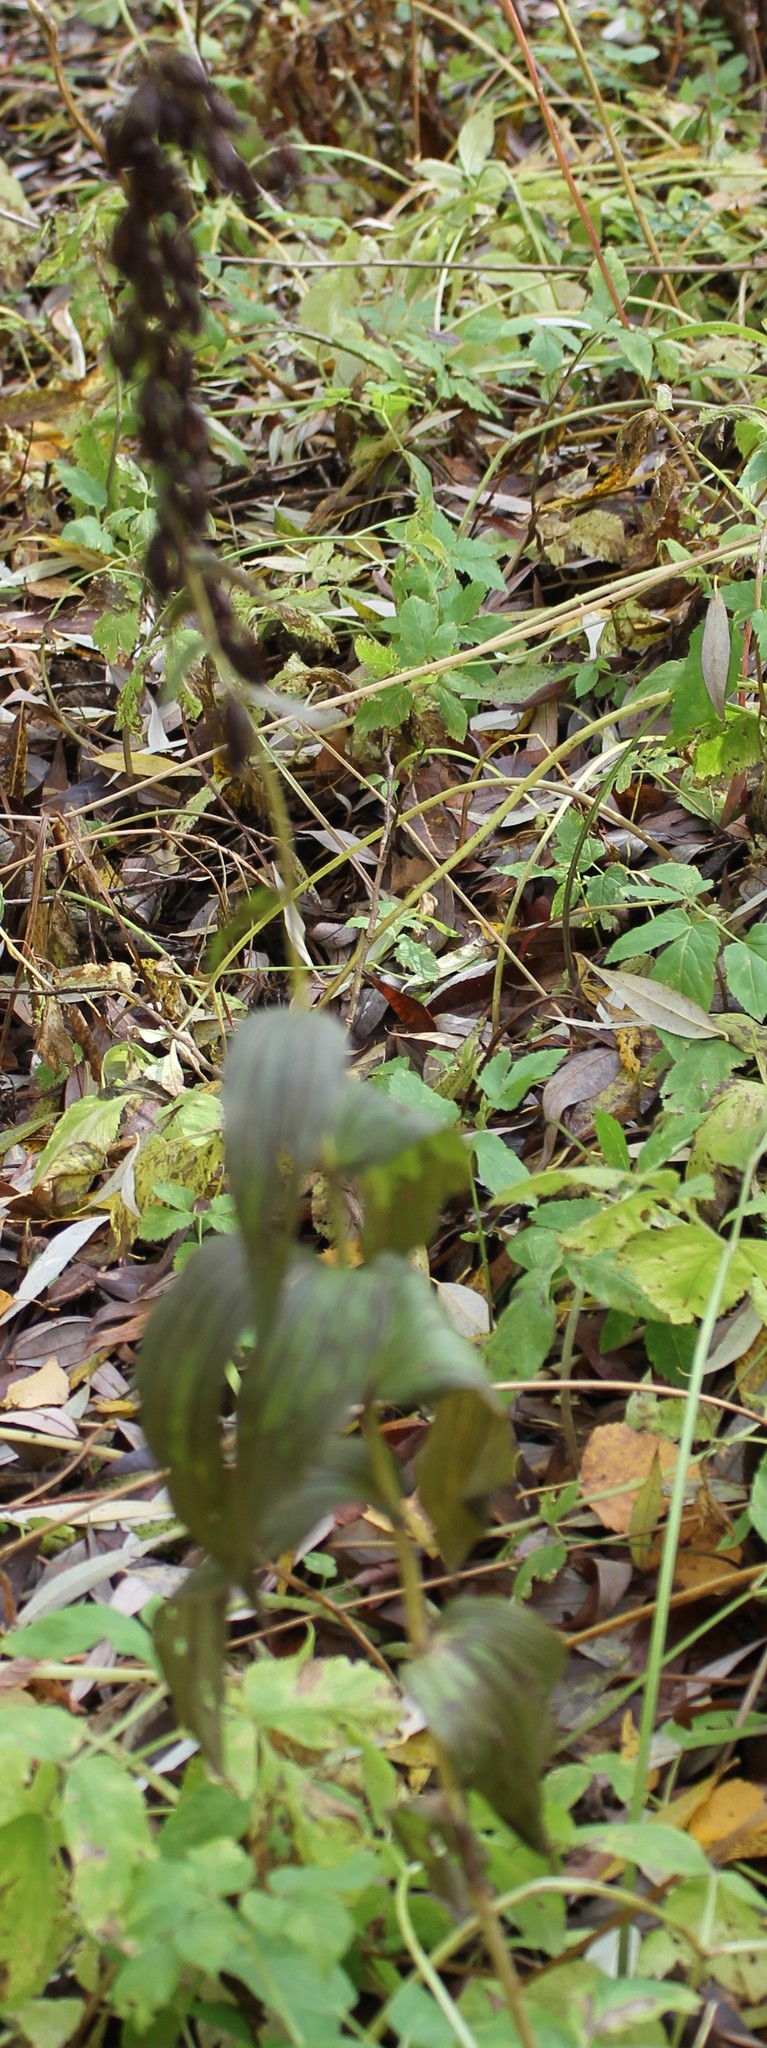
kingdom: Plantae
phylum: Tracheophyta
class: Liliopsida
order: Asparagales
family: Orchidaceae
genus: Epipactis
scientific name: Epipactis helleborine
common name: Broad-leaved helleborine
